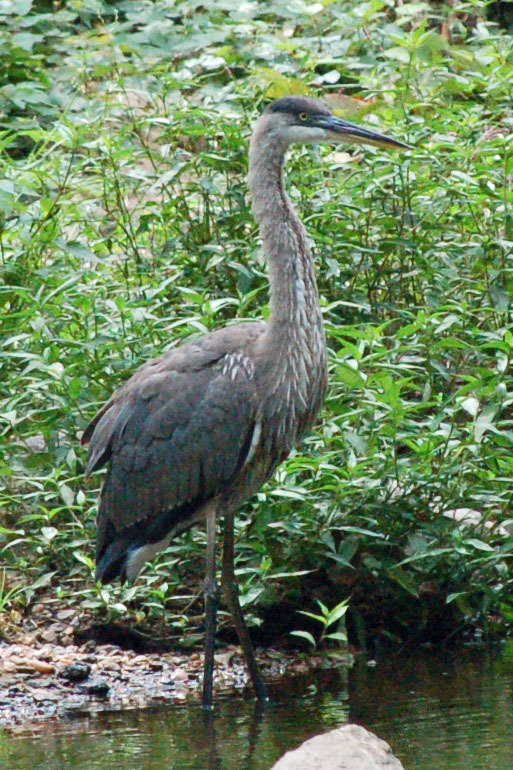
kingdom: Animalia
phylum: Chordata
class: Aves
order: Pelecaniformes
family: Ardeidae
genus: Ardea
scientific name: Ardea herodias
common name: Great blue heron
